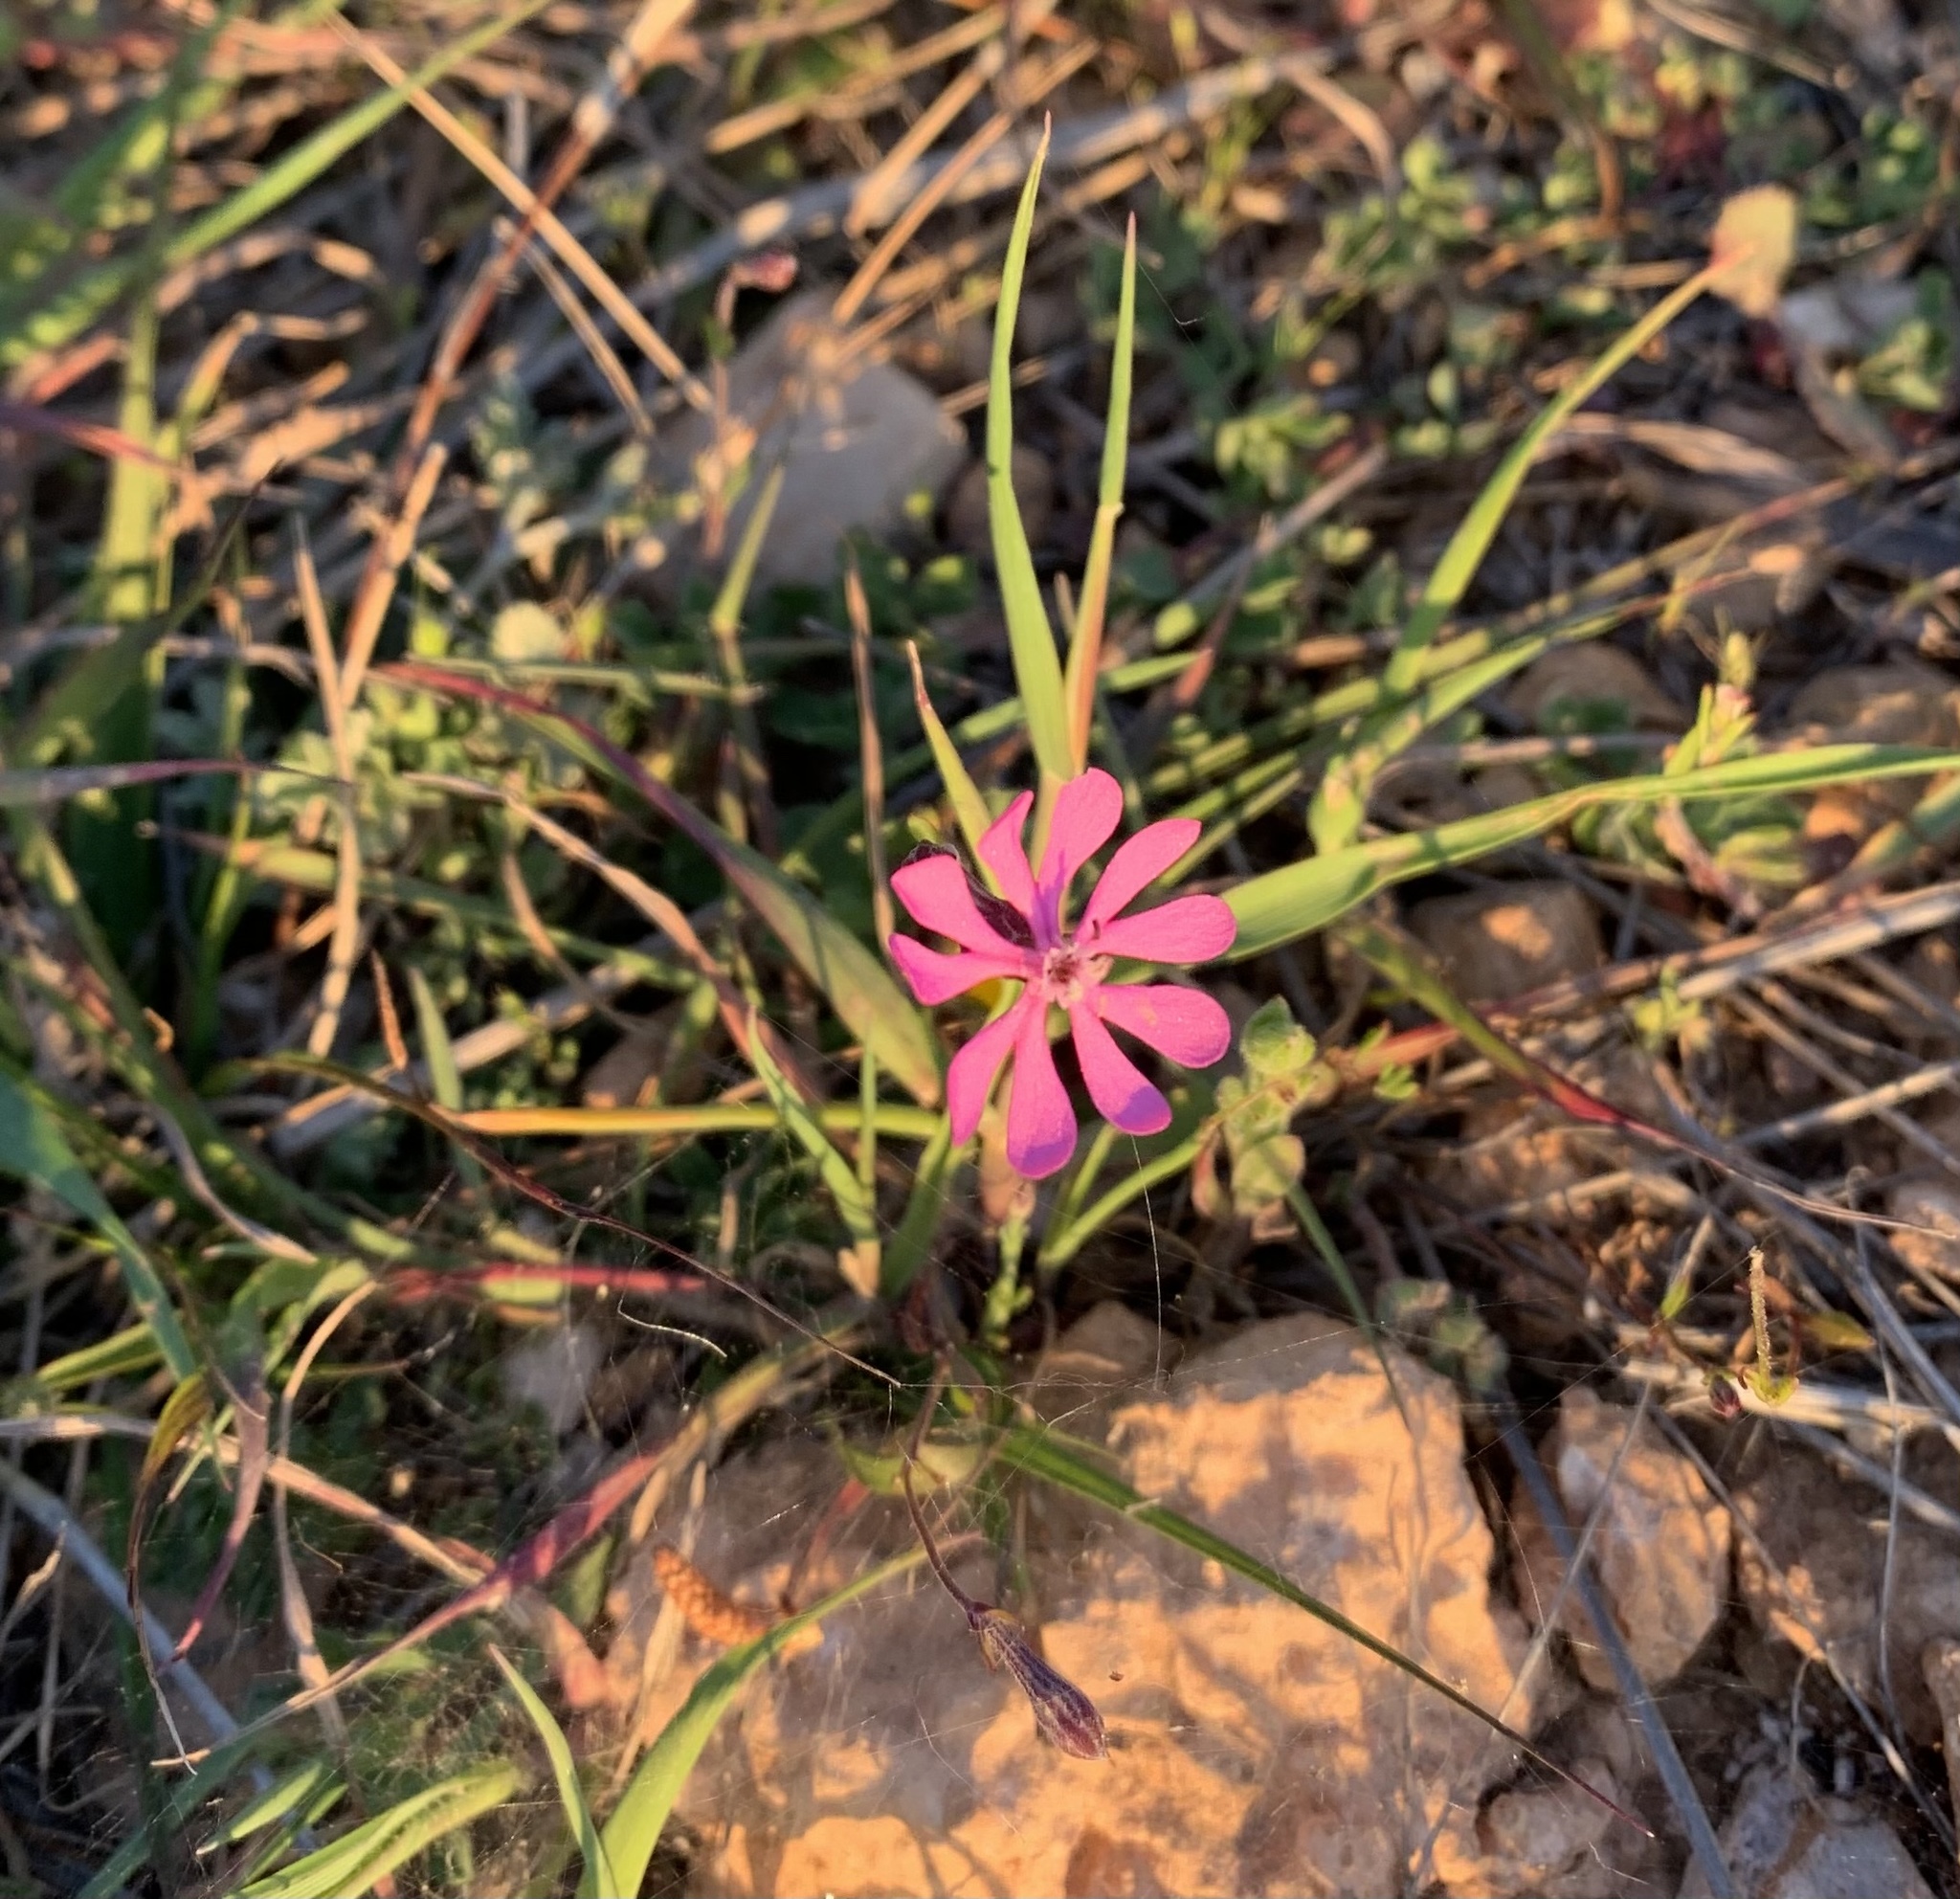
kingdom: Plantae
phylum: Tracheophyta
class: Magnoliopsida
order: Caryophyllales
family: Caryophyllaceae
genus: Silene
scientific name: Silene colorata
